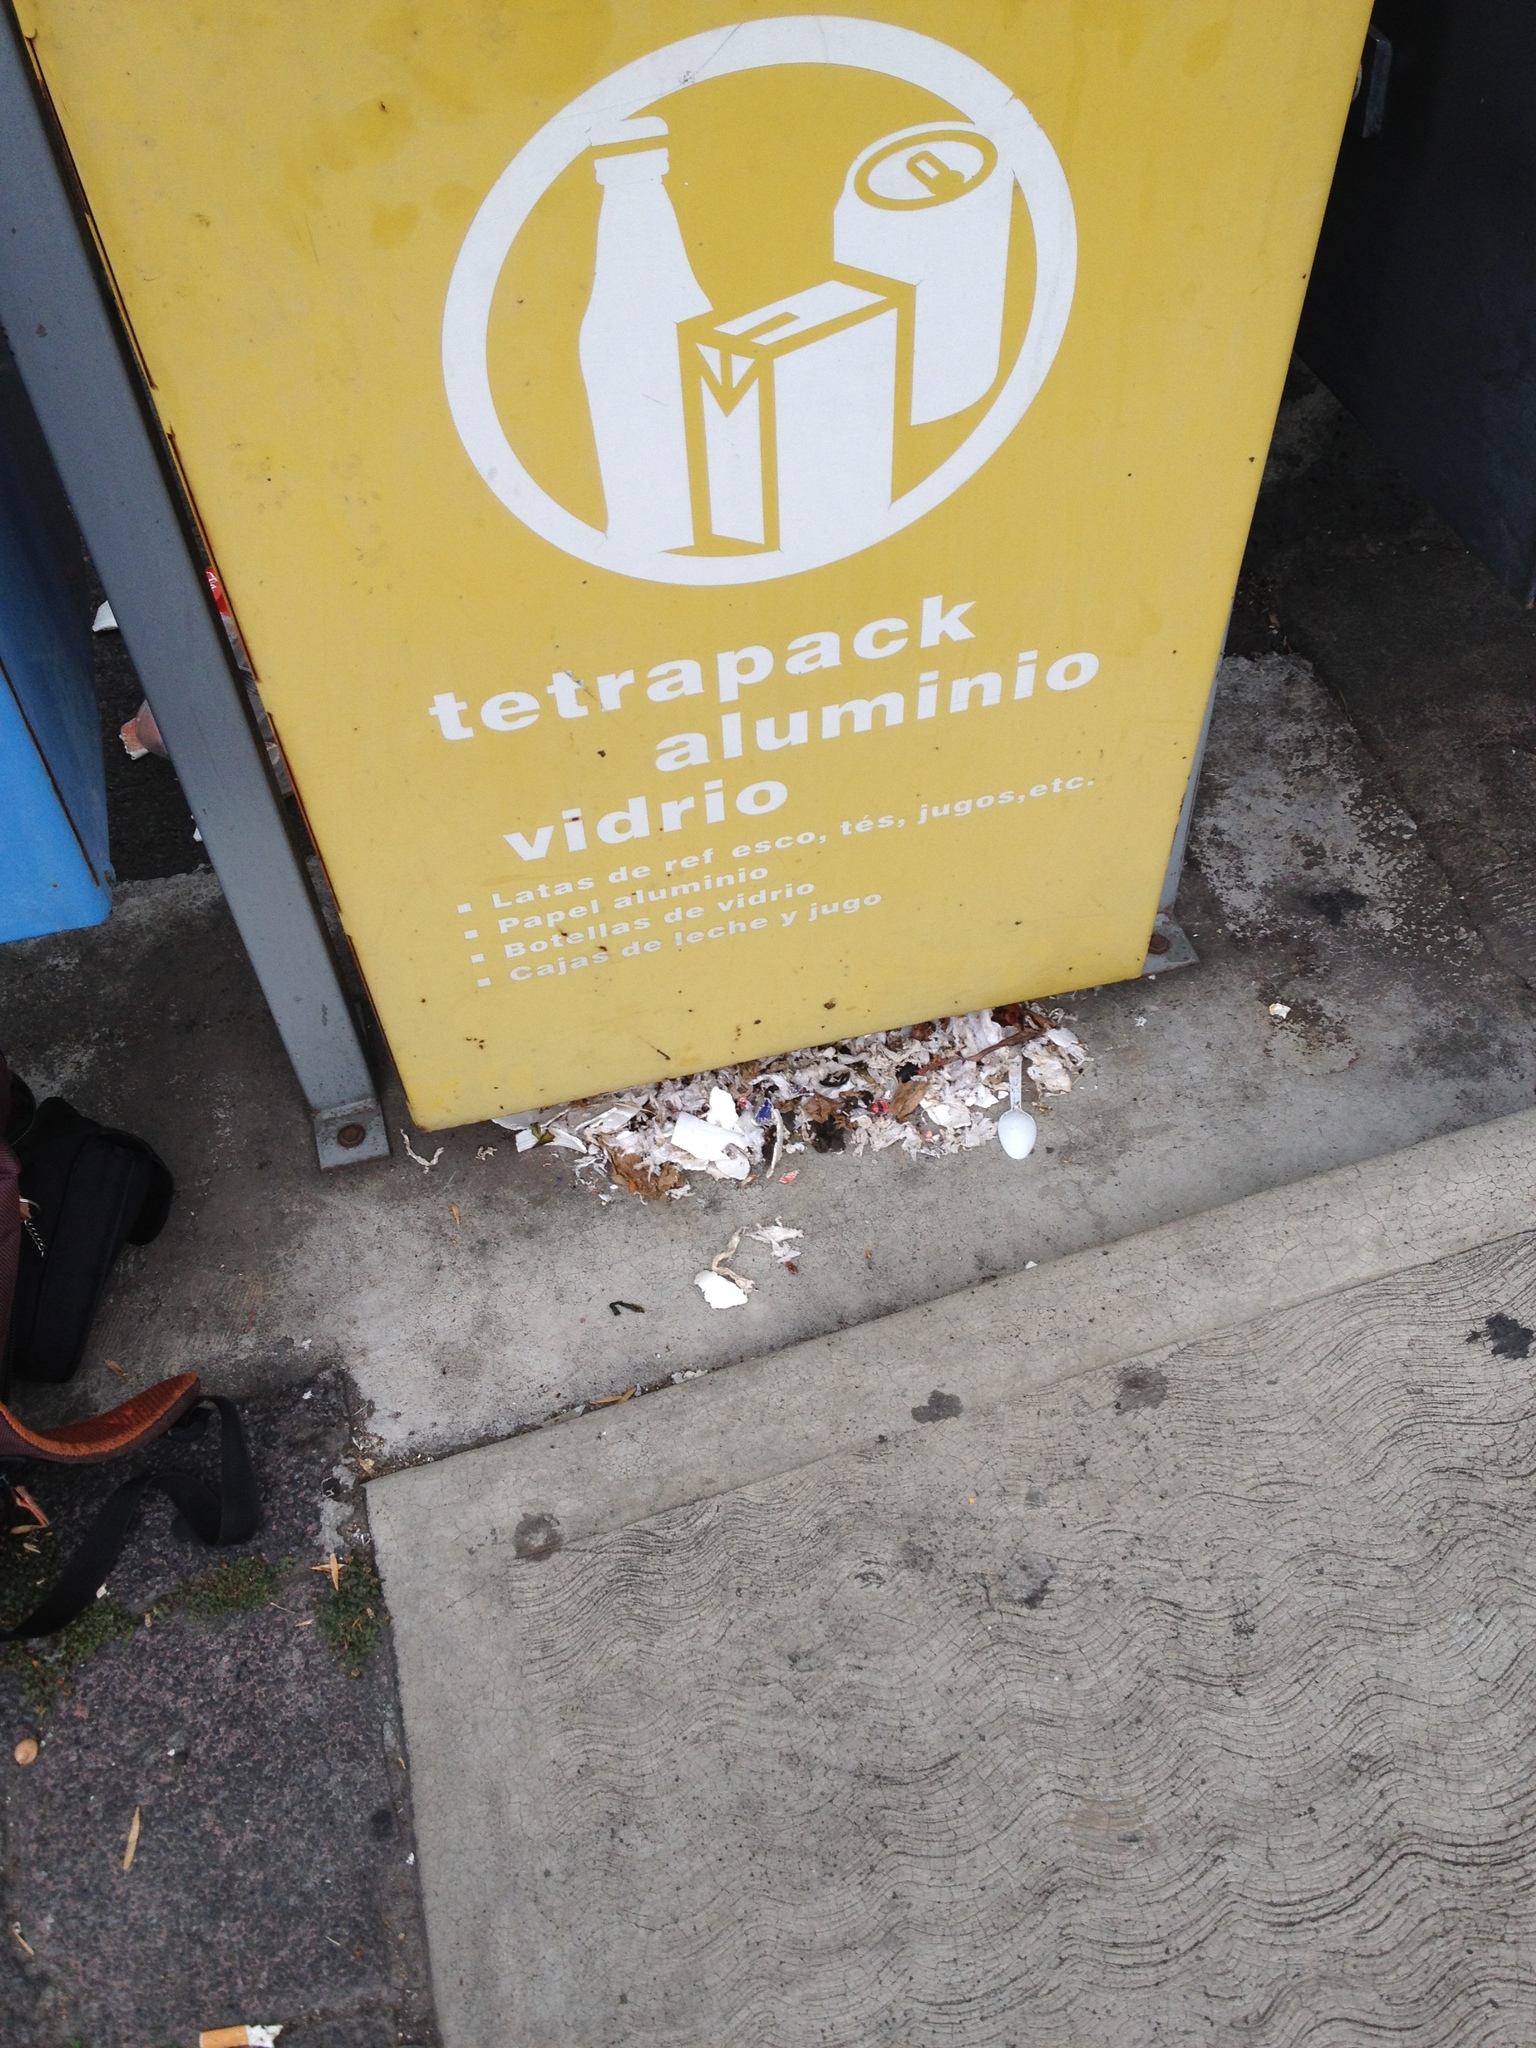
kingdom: Animalia
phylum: Chordata
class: Mammalia
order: Didelphimorphia
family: Didelphidae
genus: Didelphis
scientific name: Didelphis virginiana
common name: Virginia opossum
